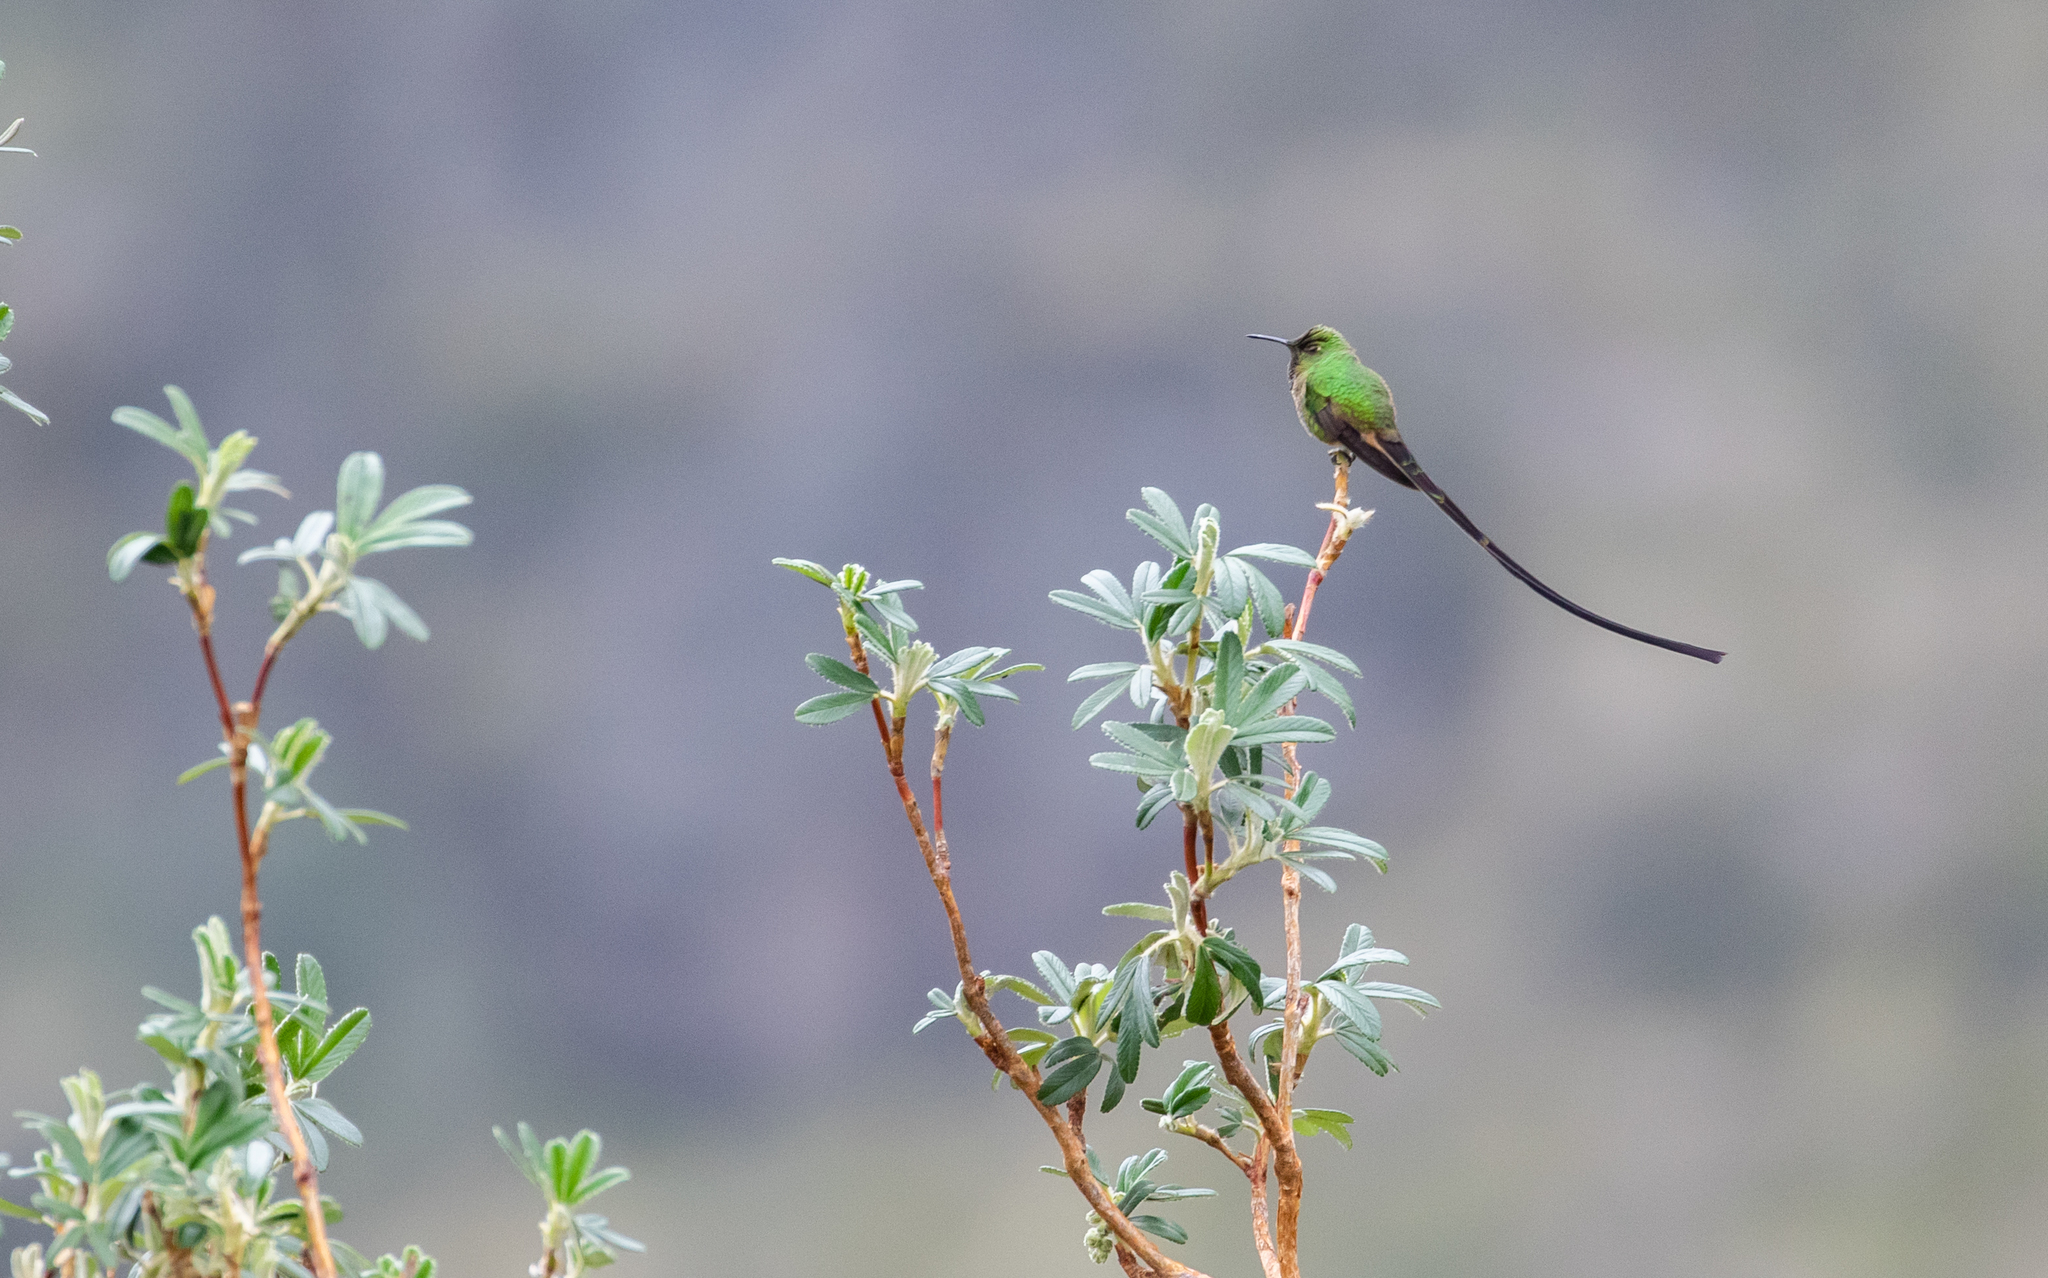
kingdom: Animalia
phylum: Chordata
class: Aves
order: Apodiformes
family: Trochilidae
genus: Lesbia
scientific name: Lesbia victoriae
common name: Black-tailed trainbearer
